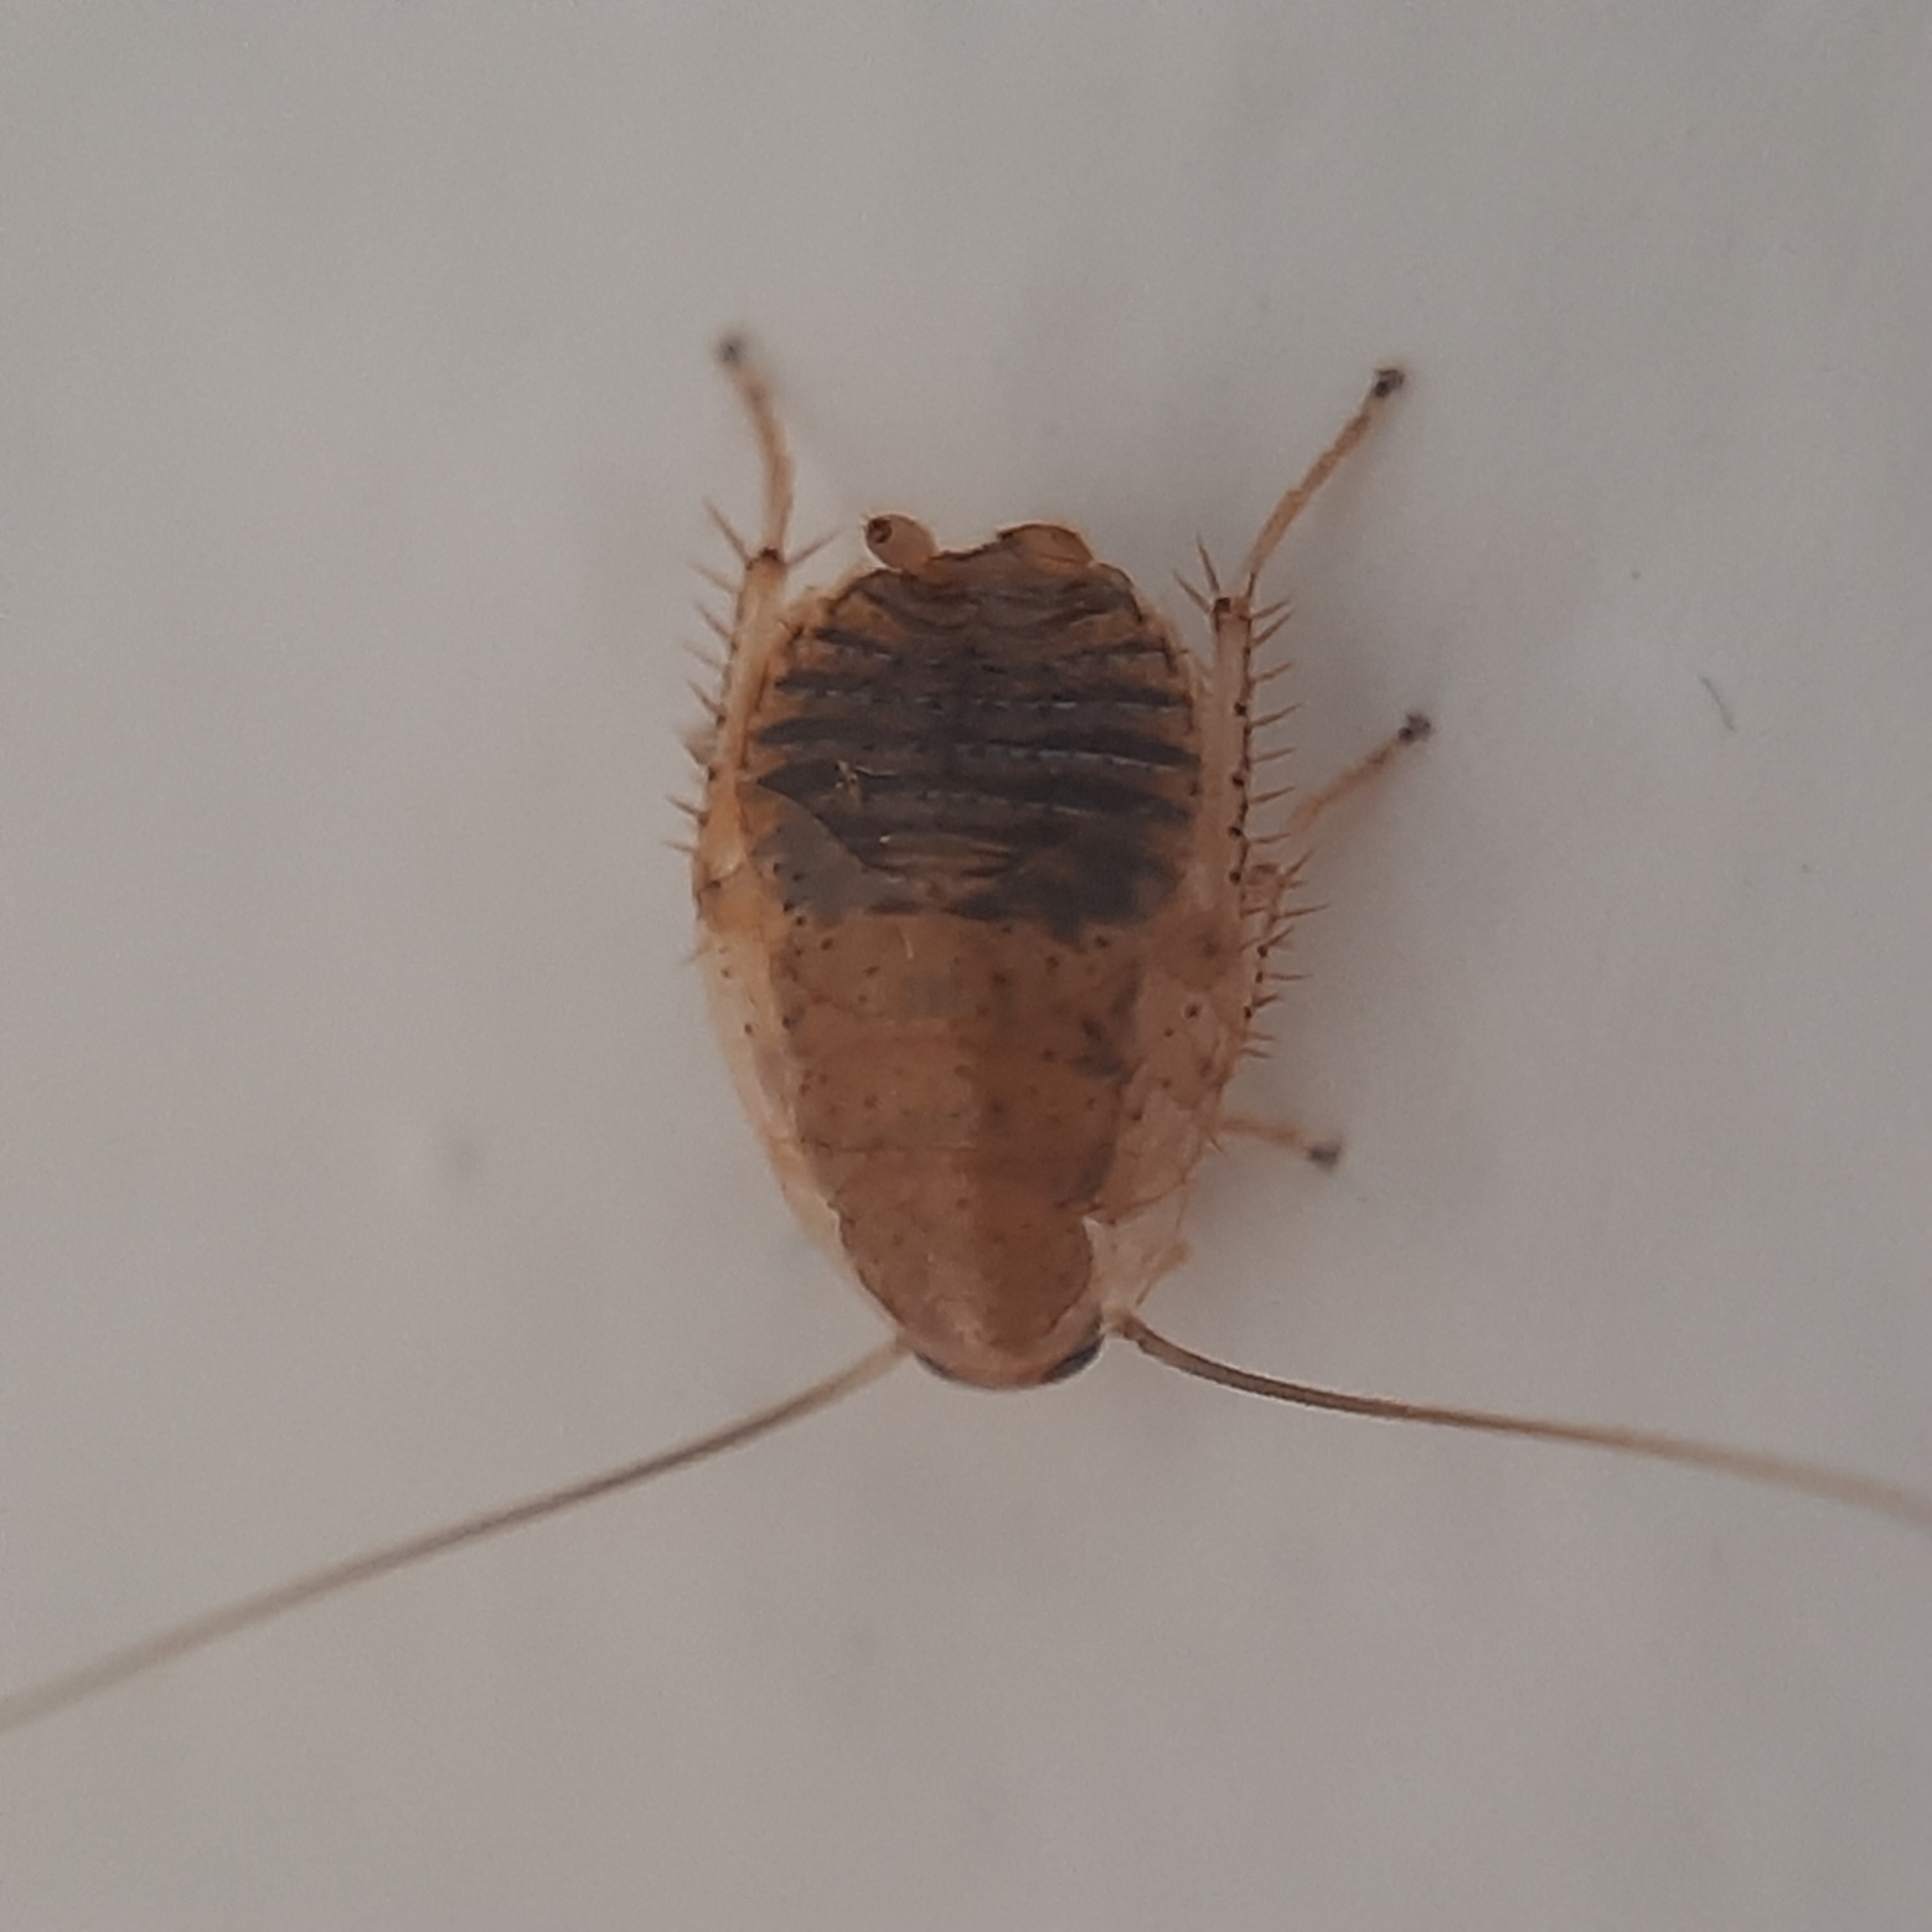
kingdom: Animalia
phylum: Arthropoda
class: Insecta
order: Blattodea
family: Ectobiidae
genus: Ectobius
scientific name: Ectobius vittiventris
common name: Garden cockroach
